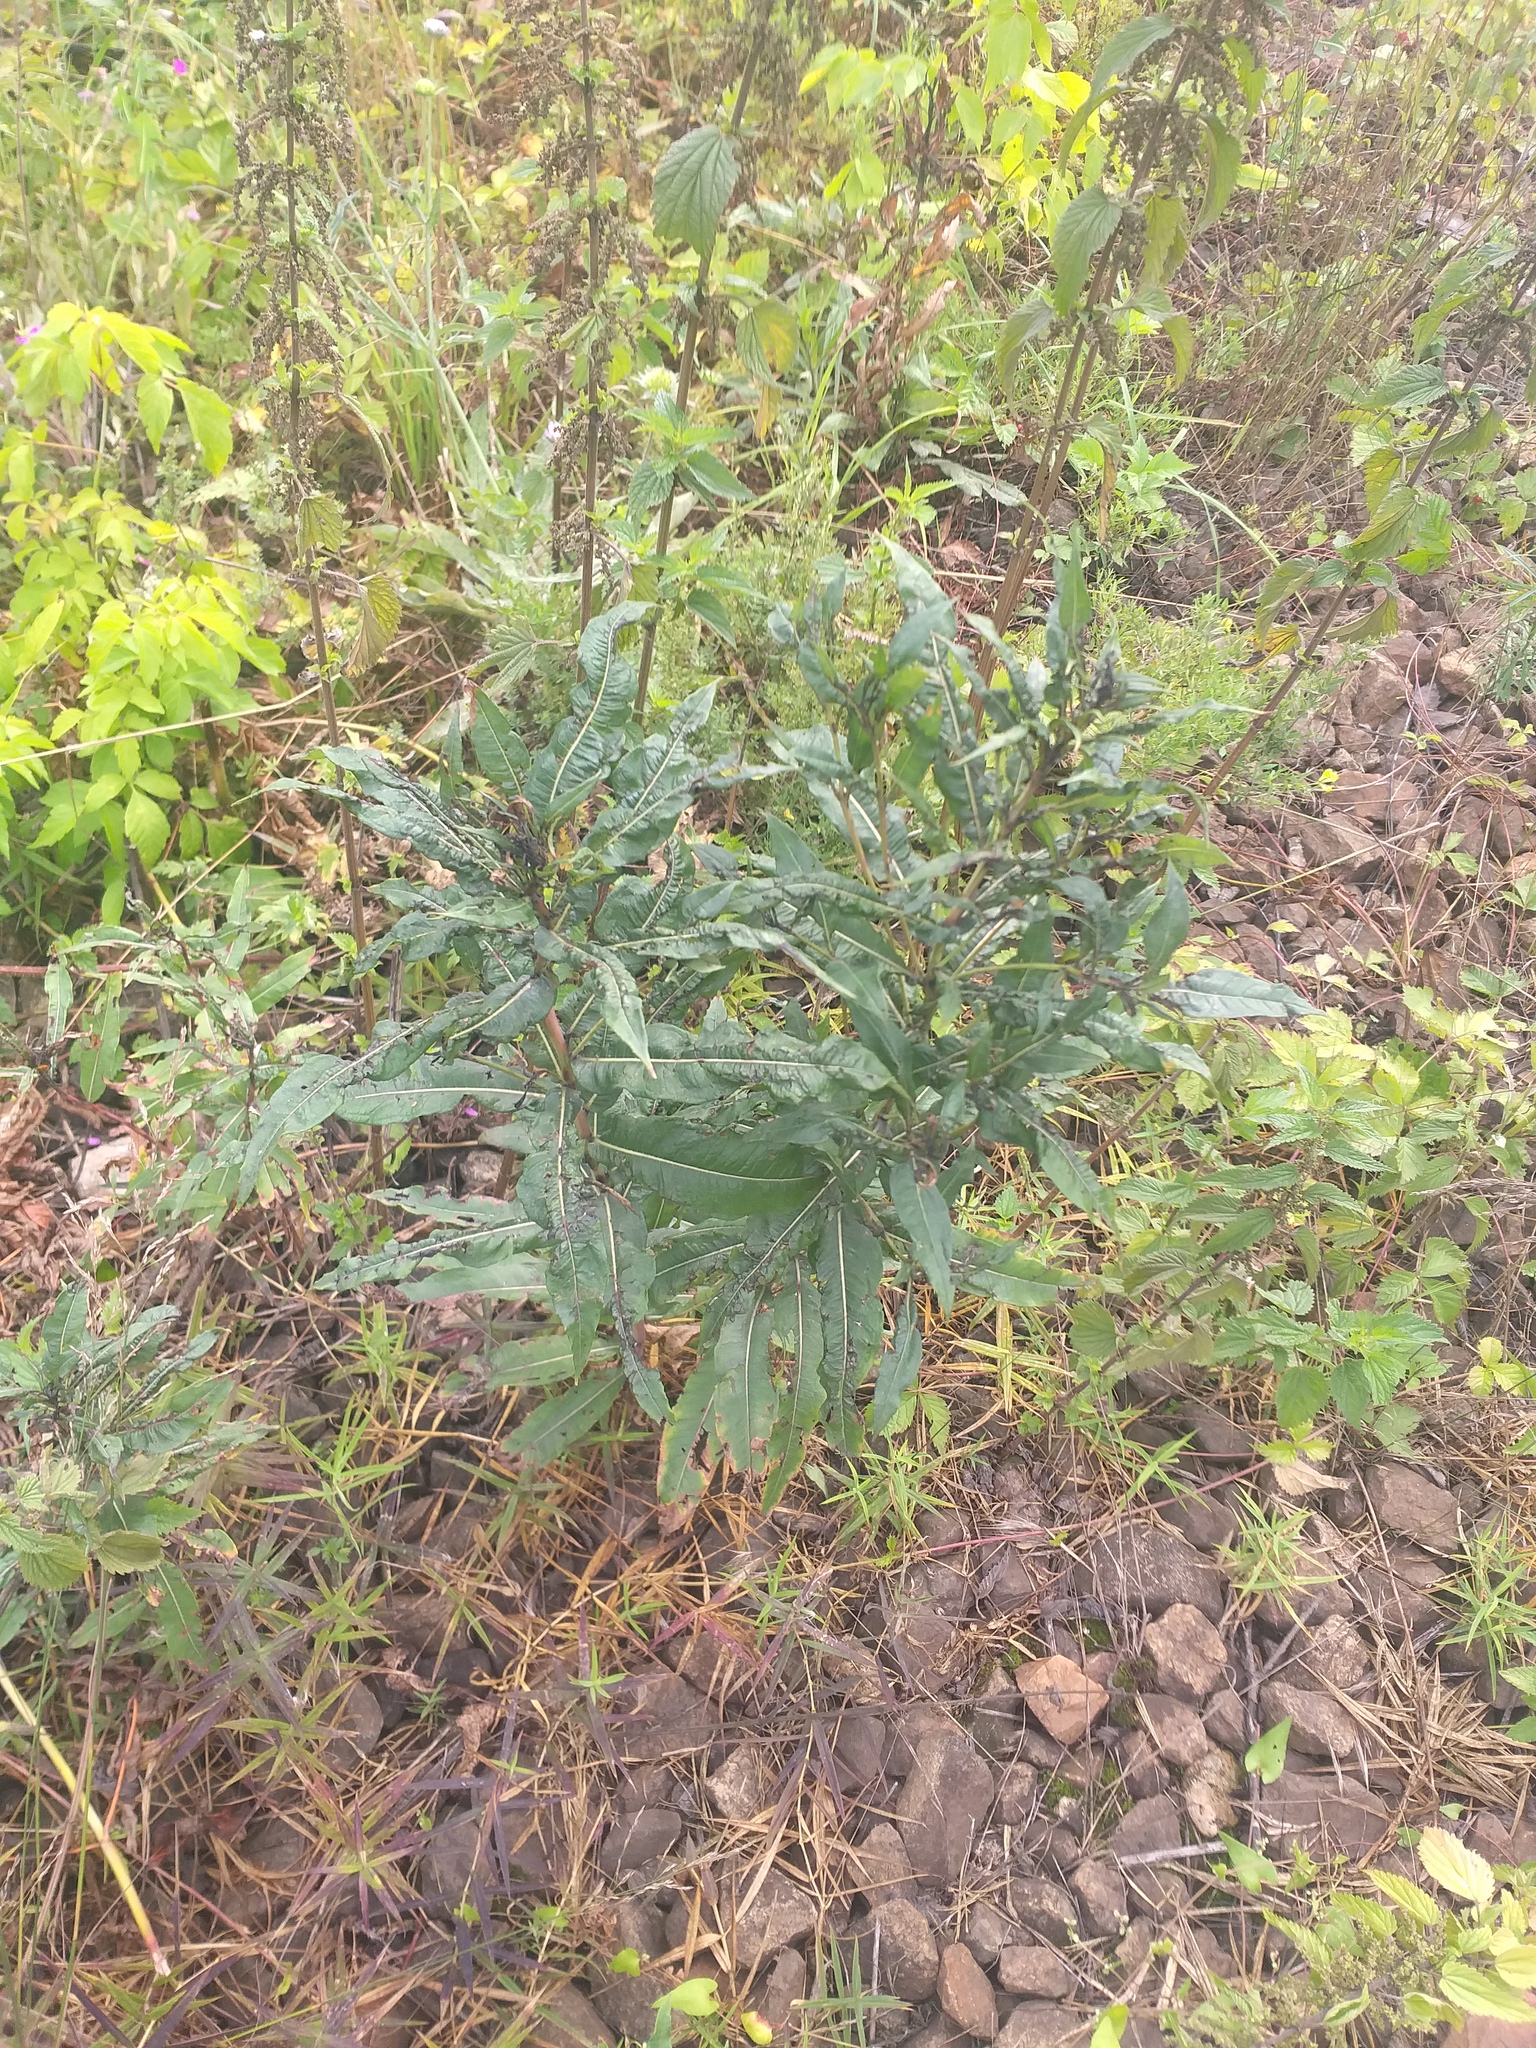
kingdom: Plantae
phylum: Tracheophyta
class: Magnoliopsida
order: Myrtales
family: Onagraceae
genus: Chamaenerion
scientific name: Chamaenerion angustifolium
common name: Fireweed
